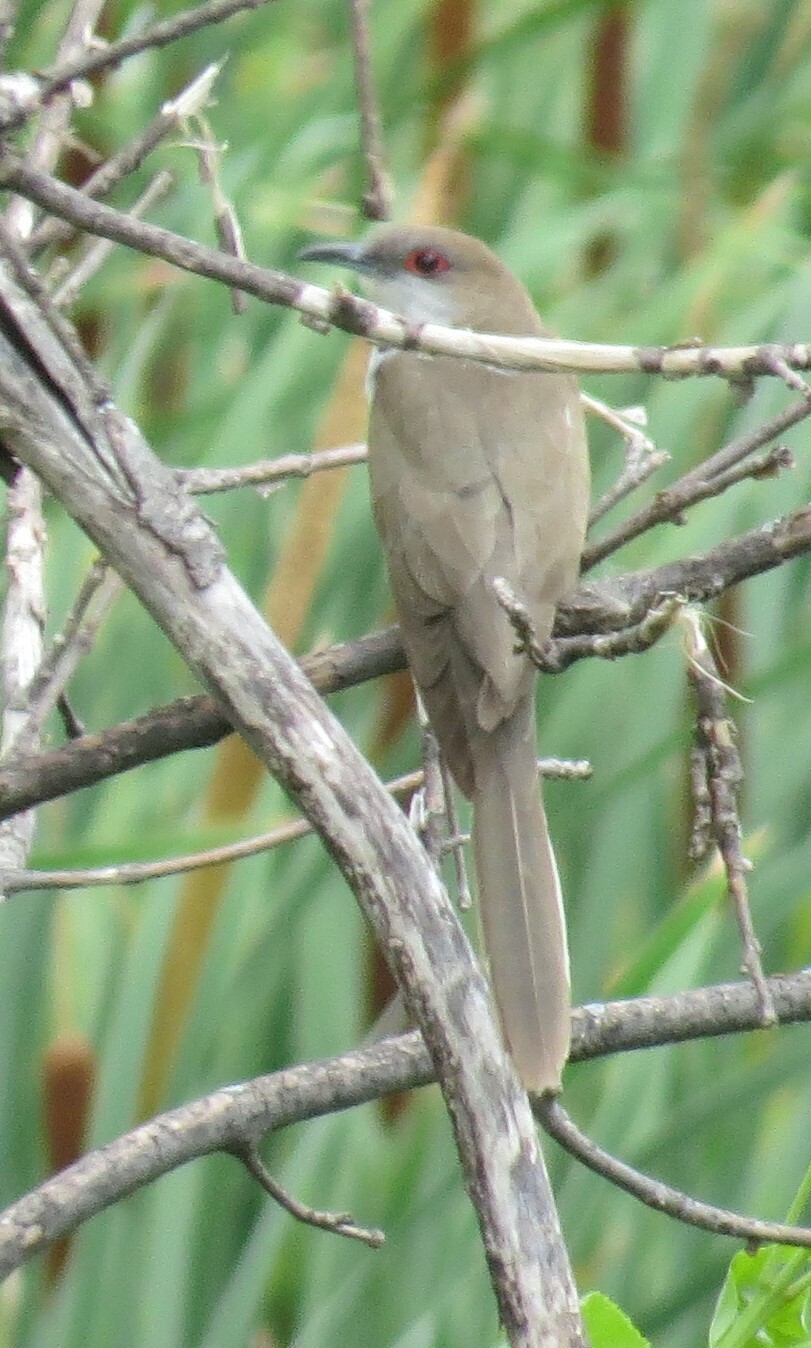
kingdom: Animalia
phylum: Chordata
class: Aves
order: Cuculiformes
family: Cuculidae
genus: Coccyzus
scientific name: Coccyzus erythropthalmus
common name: Black-billed cuckoo
